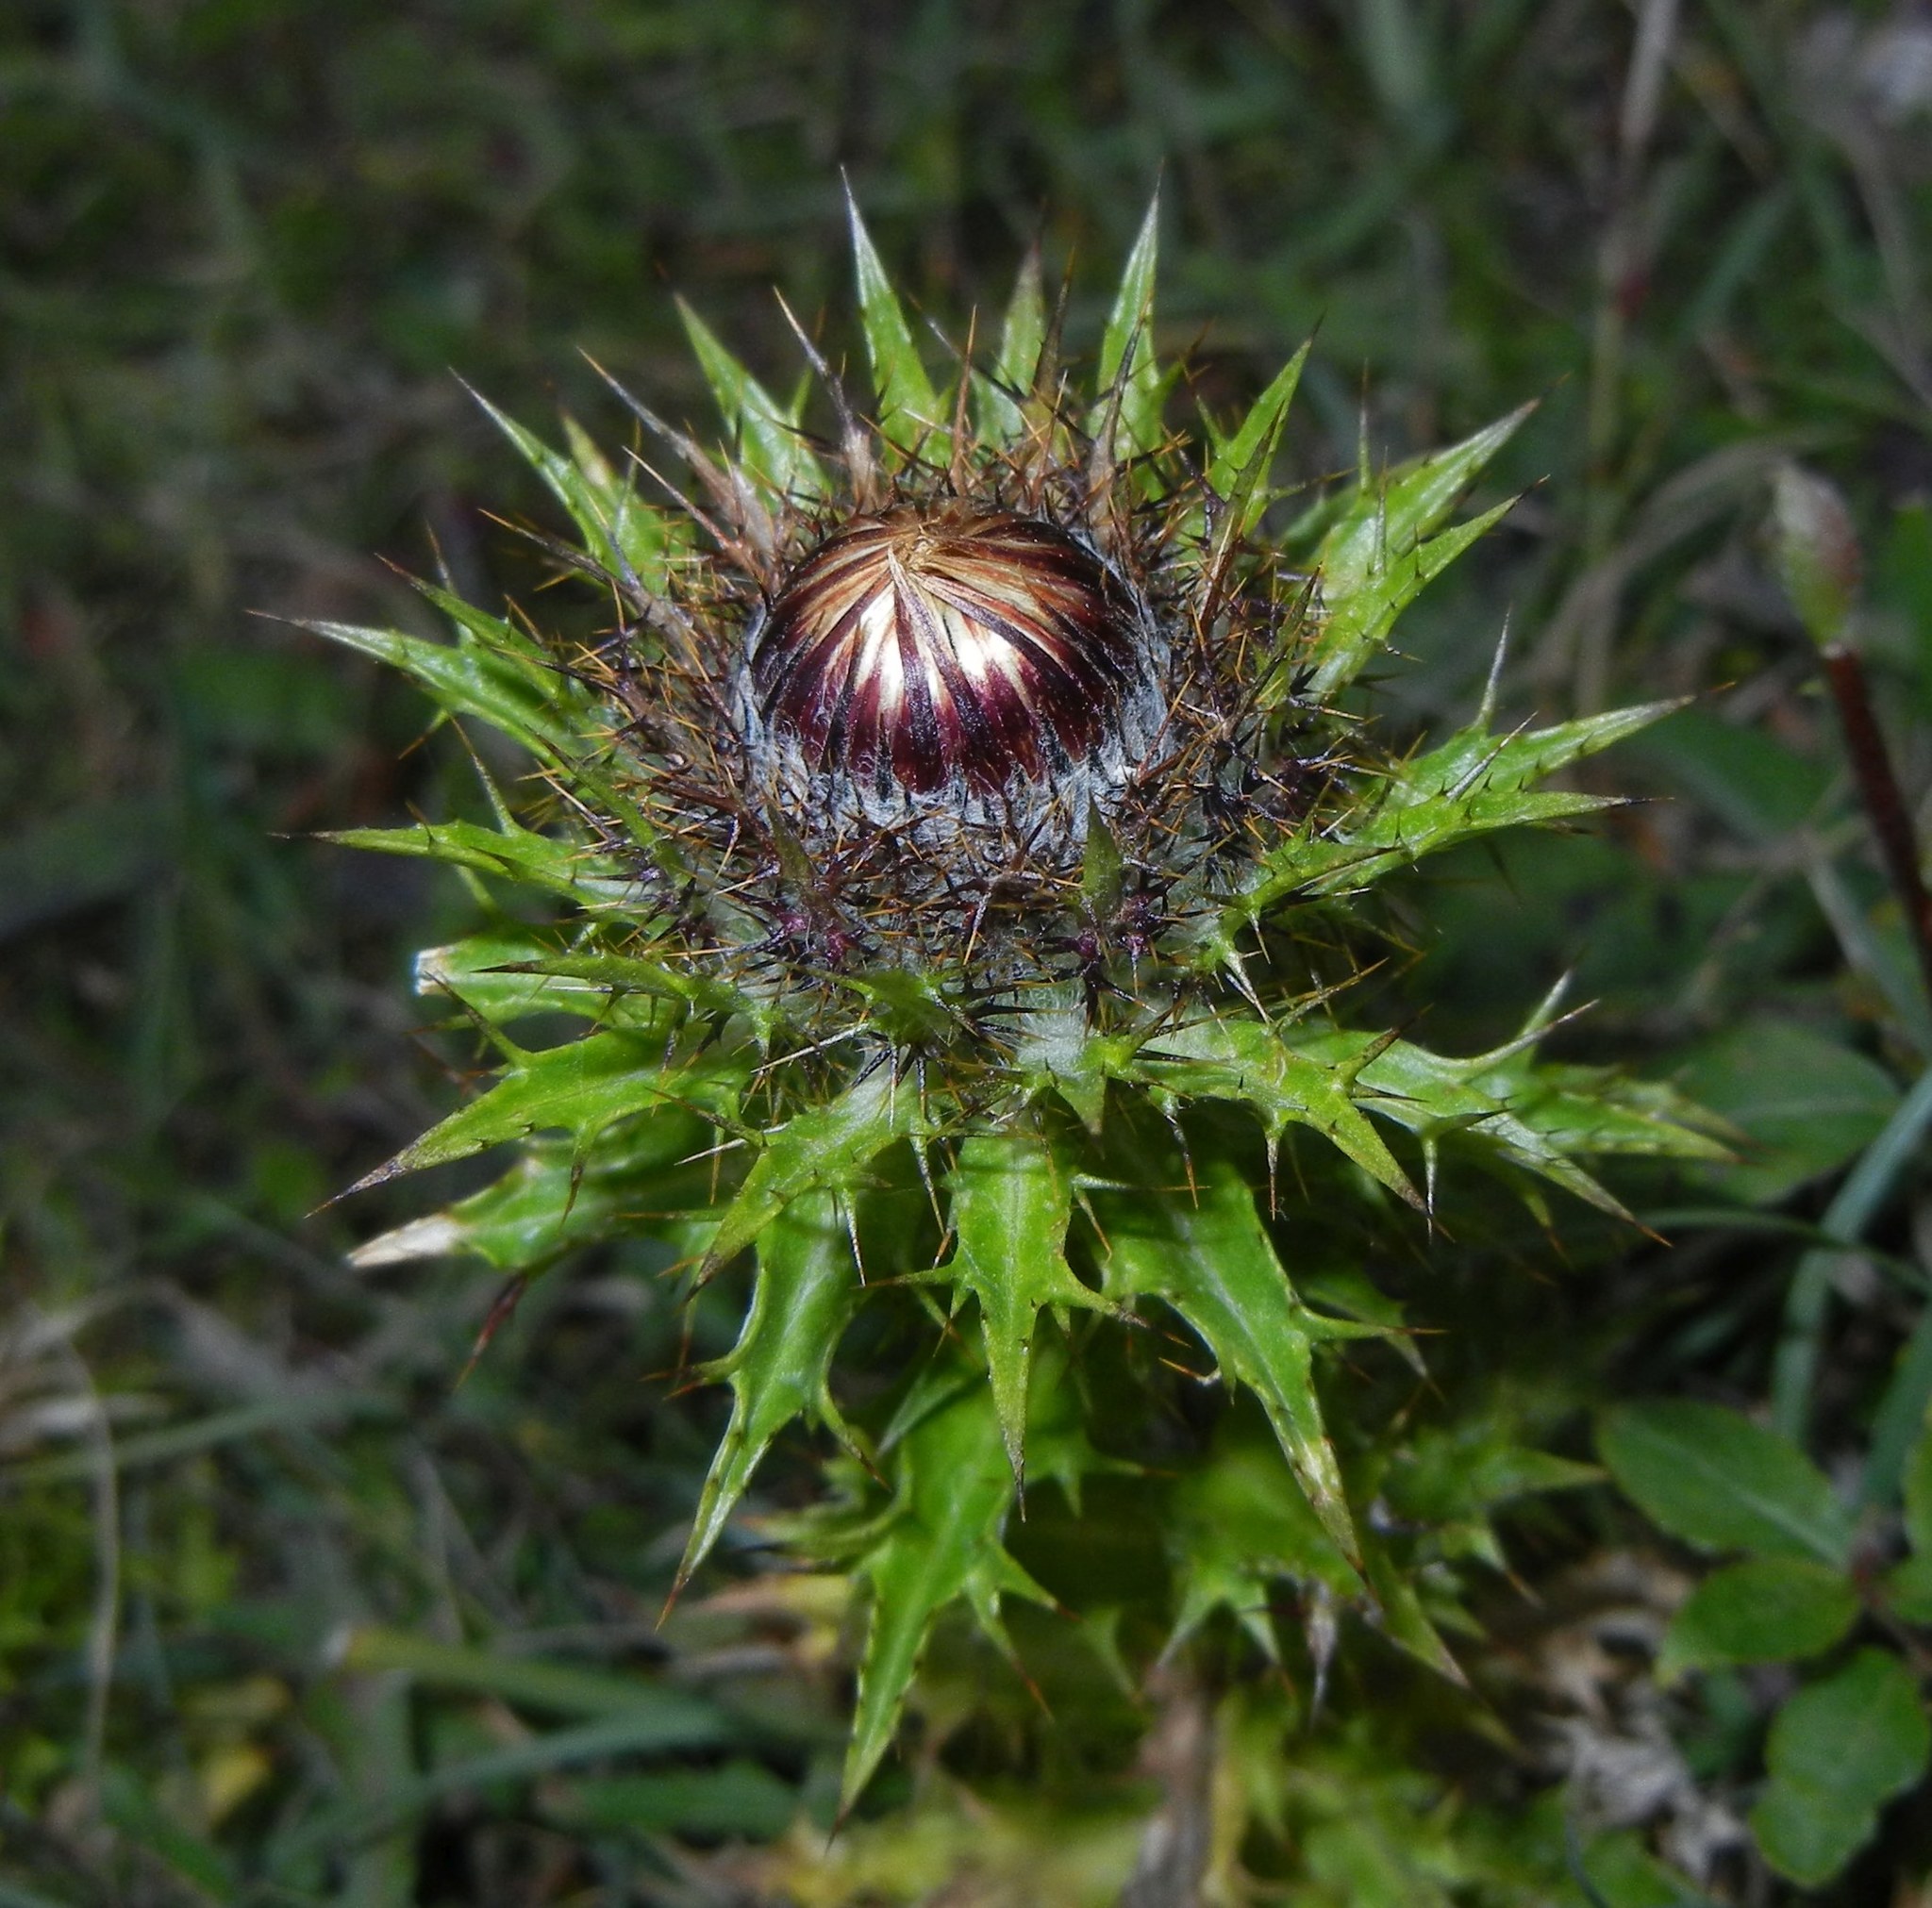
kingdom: Plantae
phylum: Tracheophyta
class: Magnoliopsida
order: Asterales
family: Asteraceae
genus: Carlina
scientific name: Carlina vulgaris
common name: Carline thistle
